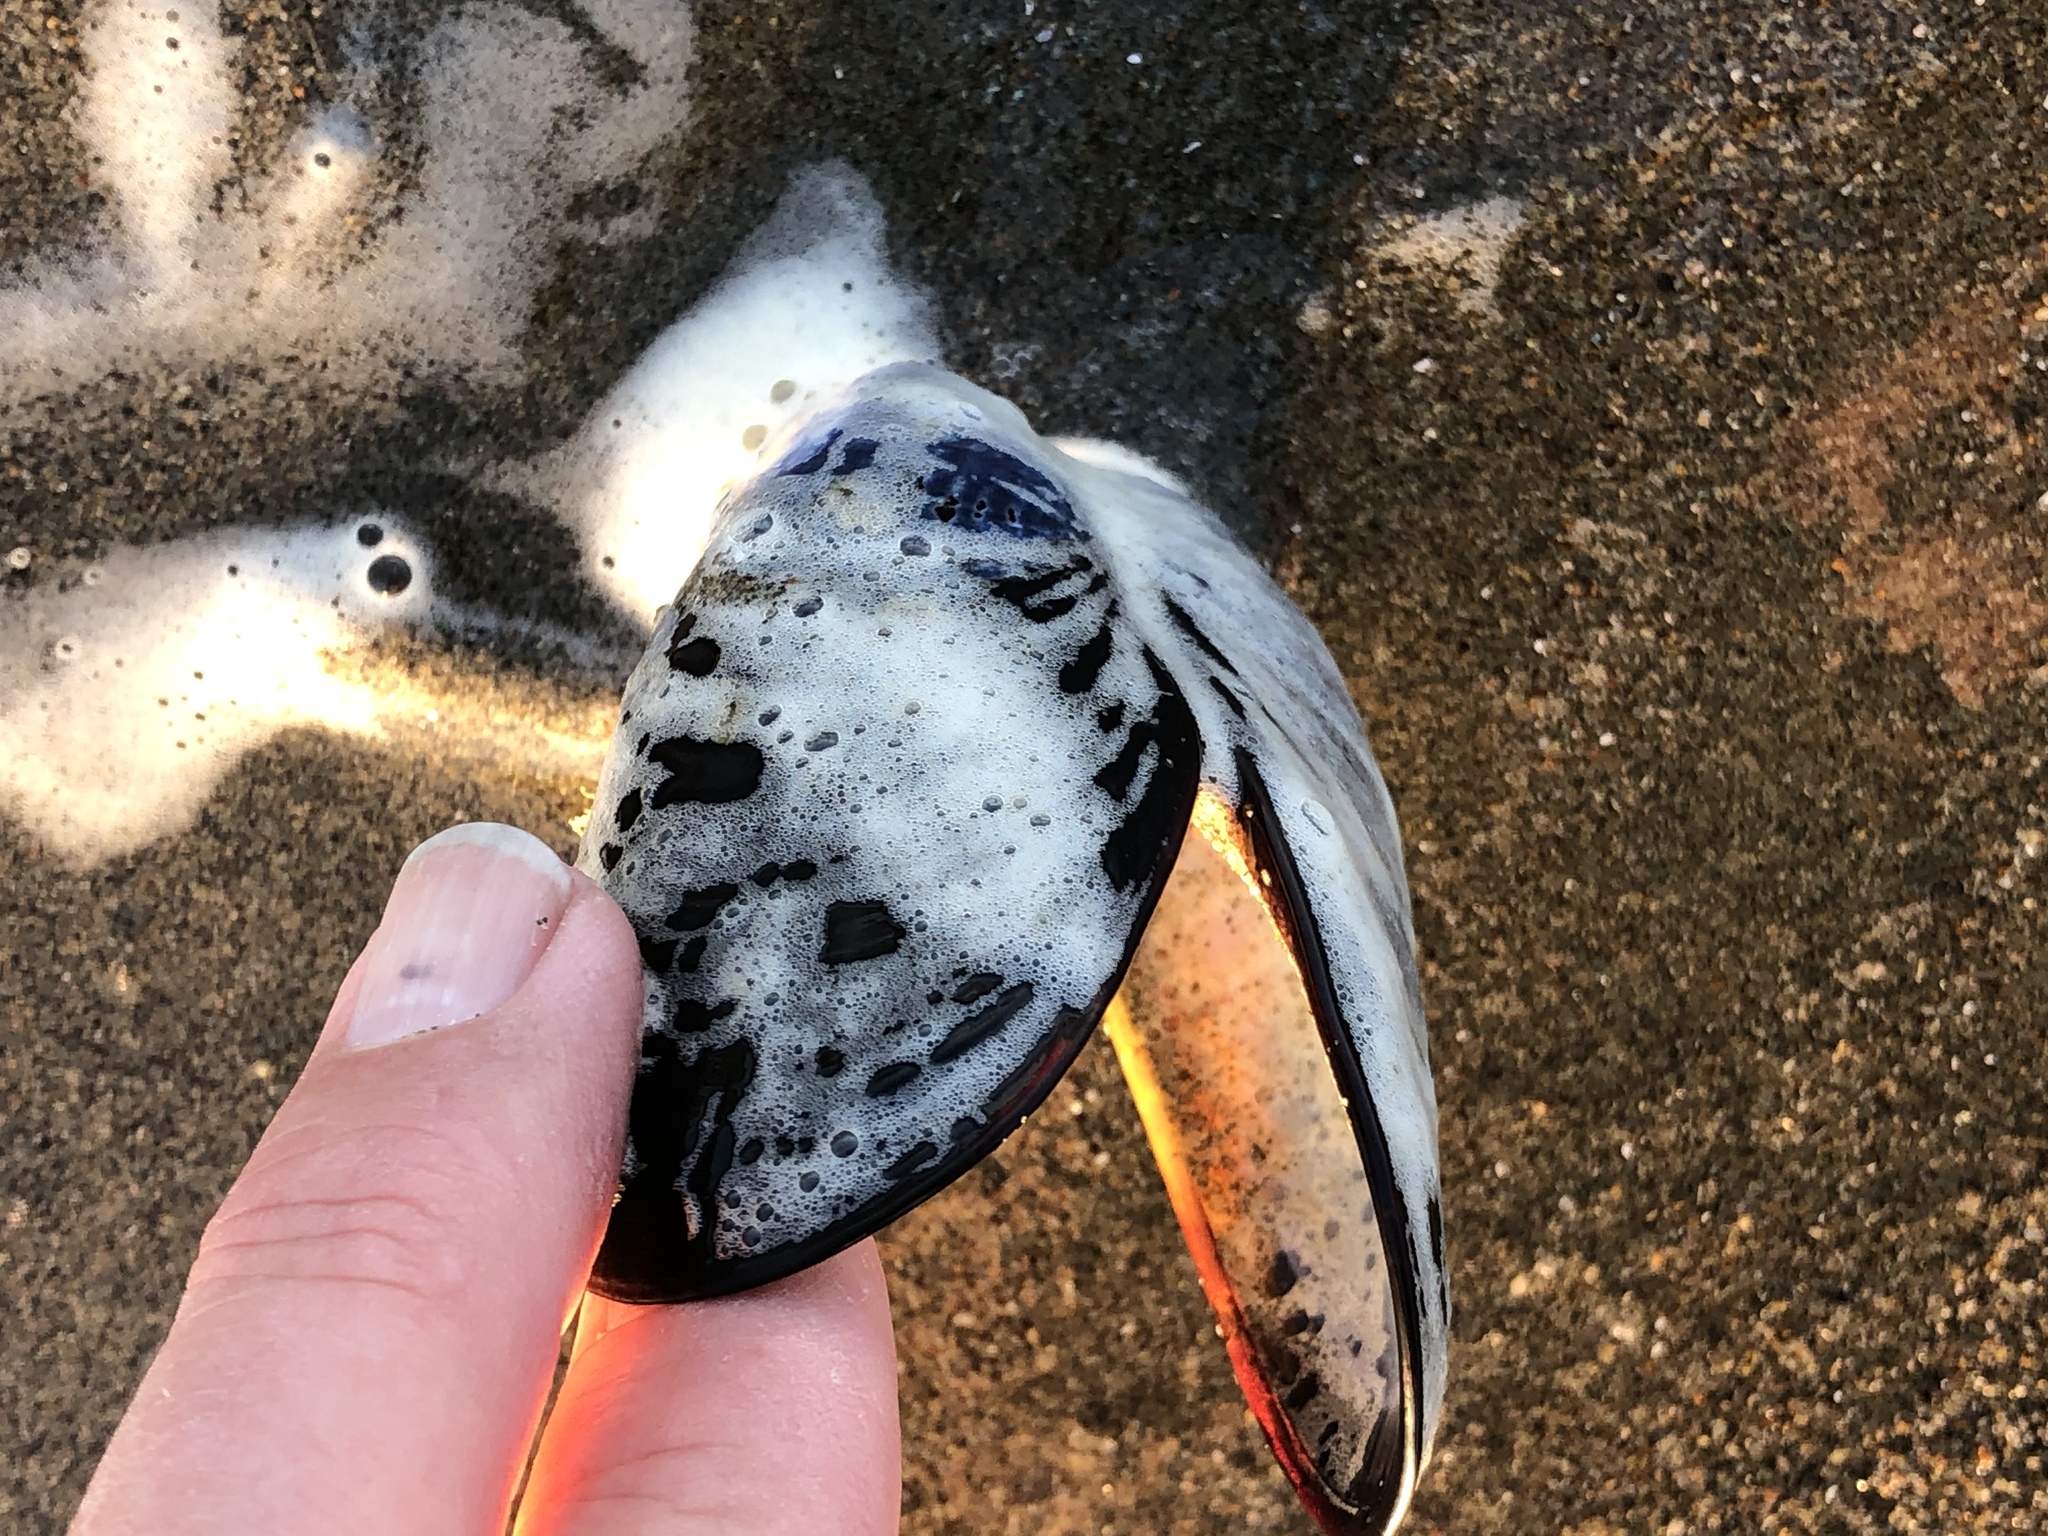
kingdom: Animalia
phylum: Mollusca
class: Bivalvia
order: Mytilida
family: Mytilidae
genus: Mytilus
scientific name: Mytilus californianus
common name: California mussel
